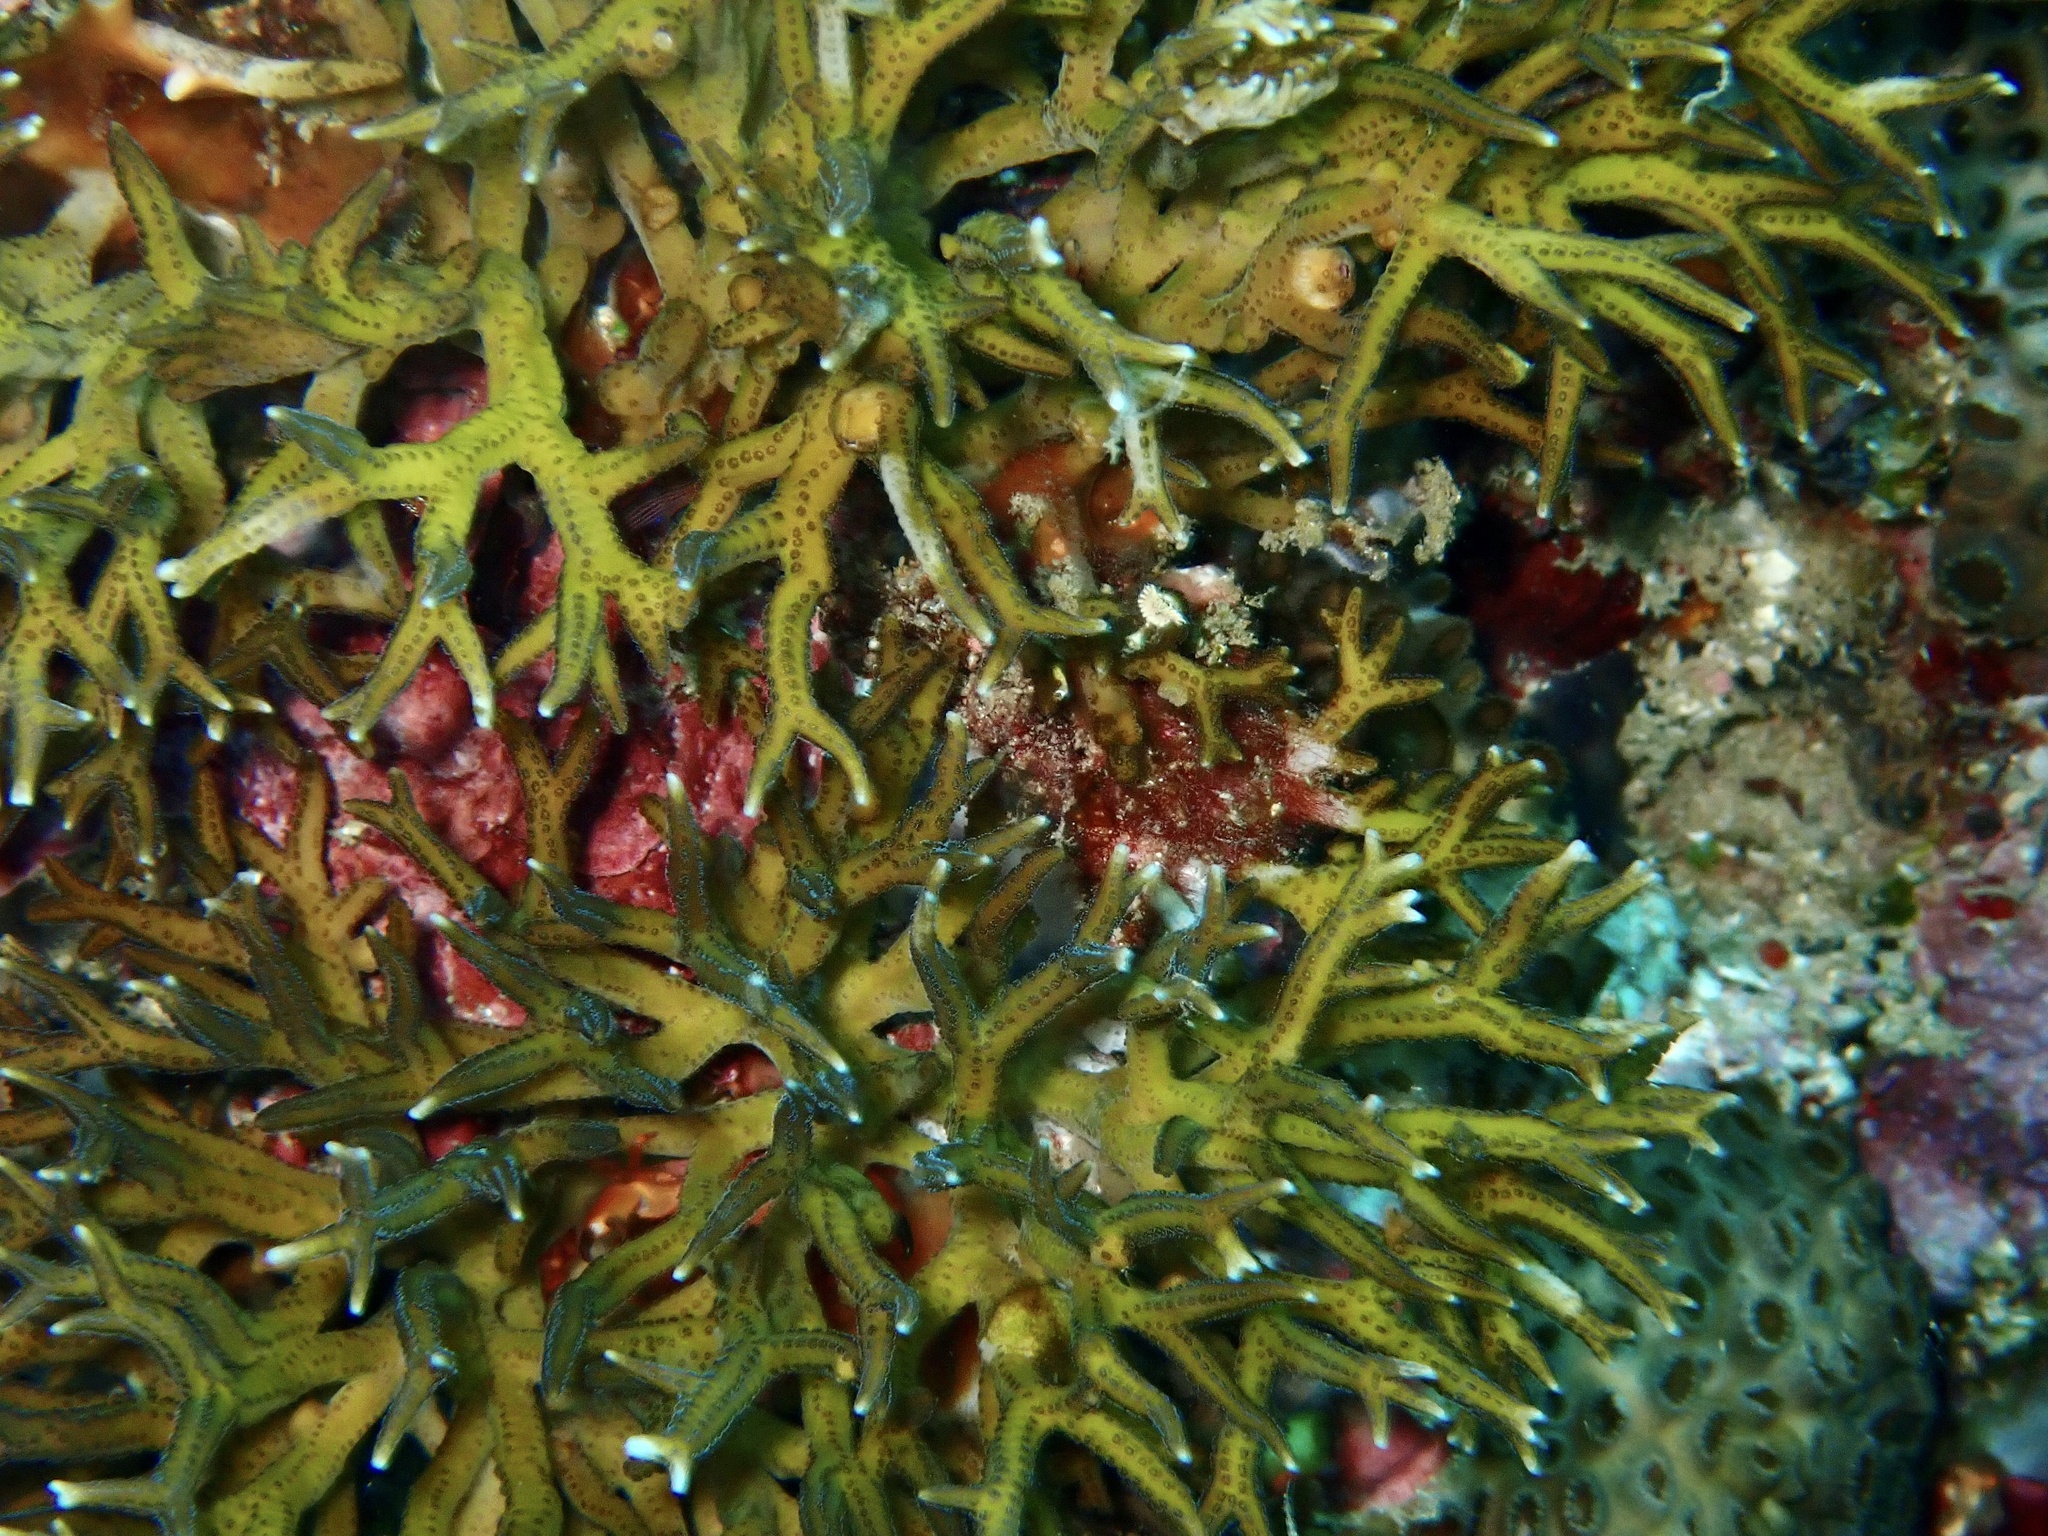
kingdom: Animalia
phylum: Cnidaria
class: Anthozoa
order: Scleractinia
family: Pocilloporidae
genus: Seriatopora
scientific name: Seriatopora hystrix
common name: Bush coral
